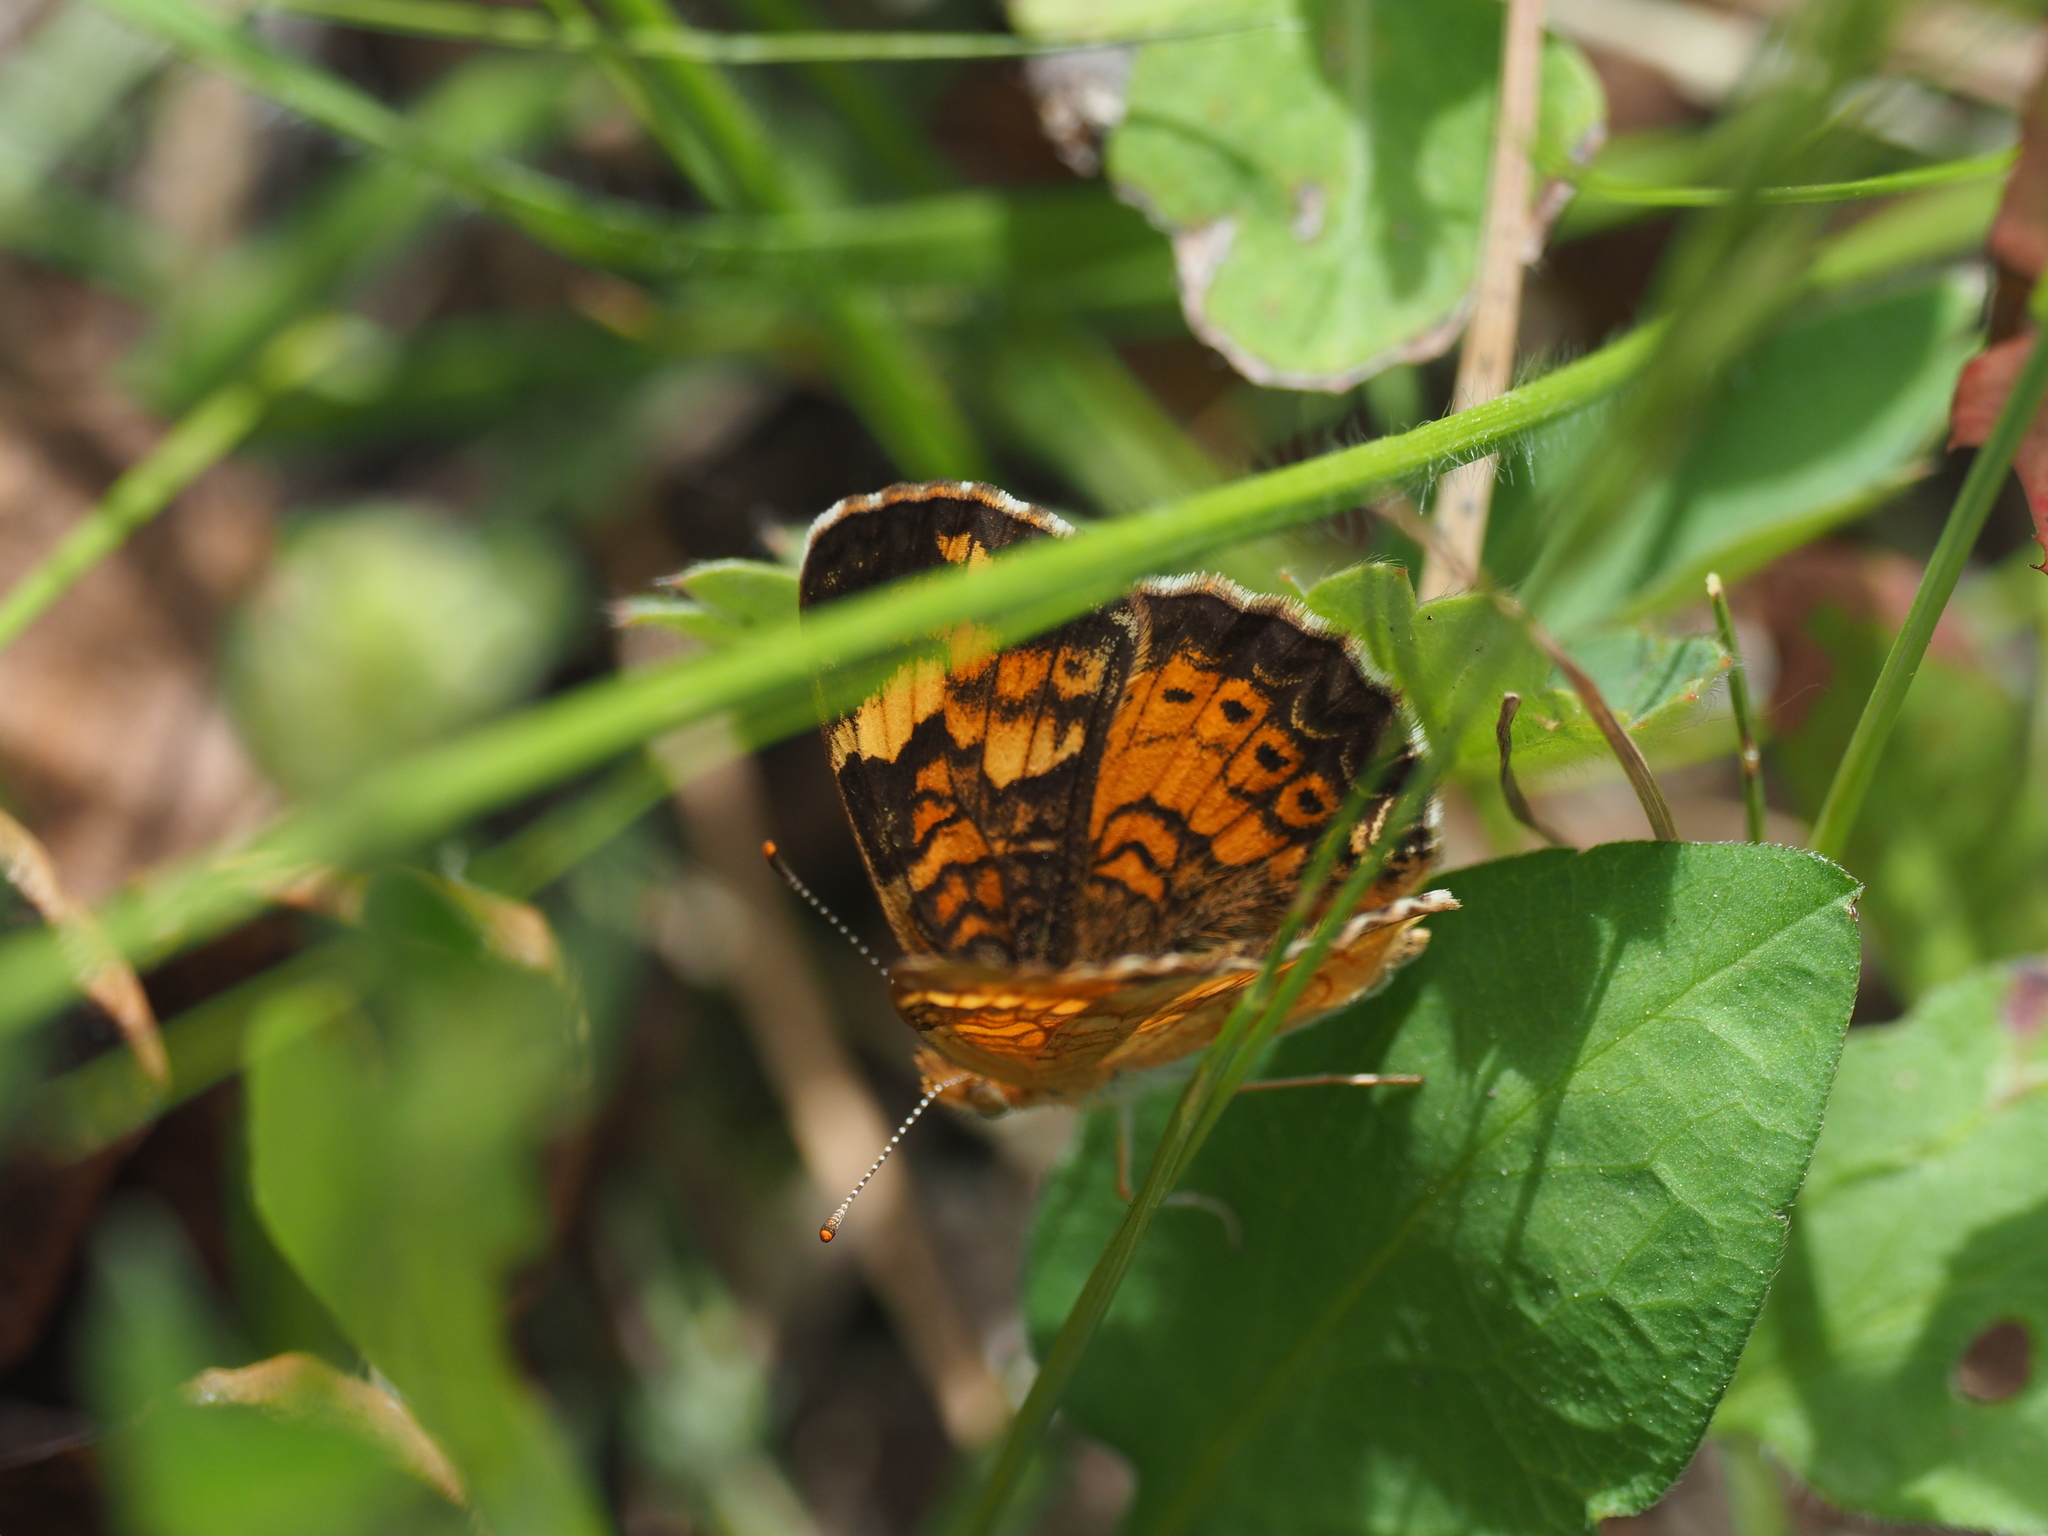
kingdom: Animalia
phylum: Arthropoda
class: Insecta
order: Lepidoptera
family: Nymphalidae
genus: Phyciodes
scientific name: Phyciodes tharos
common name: Pearl crescent
